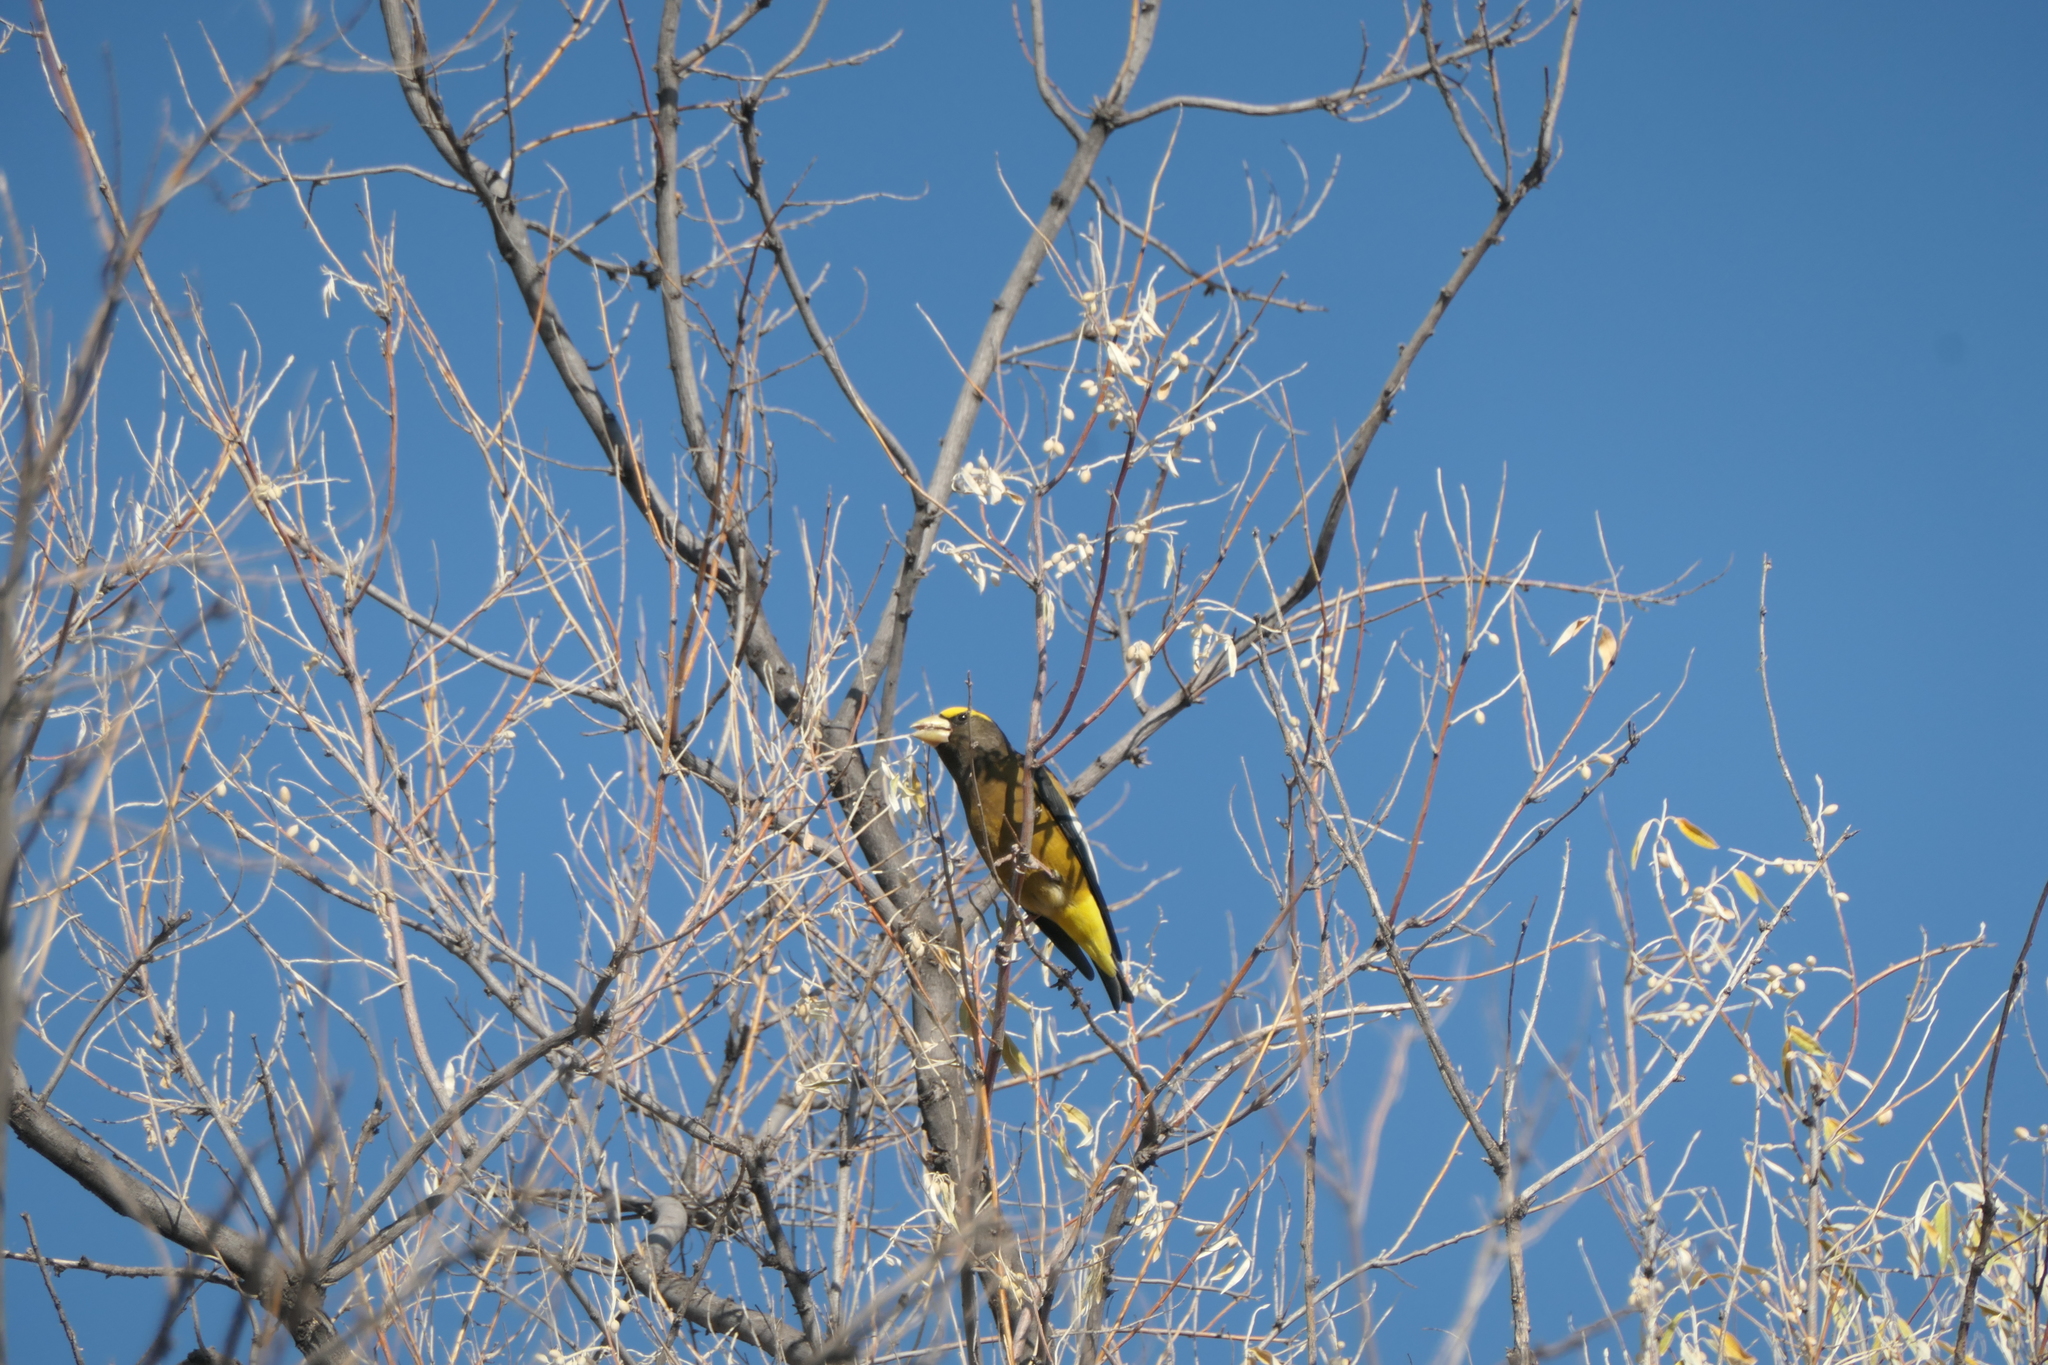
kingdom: Animalia
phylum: Chordata
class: Aves
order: Passeriformes
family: Fringillidae
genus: Hesperiphona
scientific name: Hesperiphona vespertina
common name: Evening grosbeak
